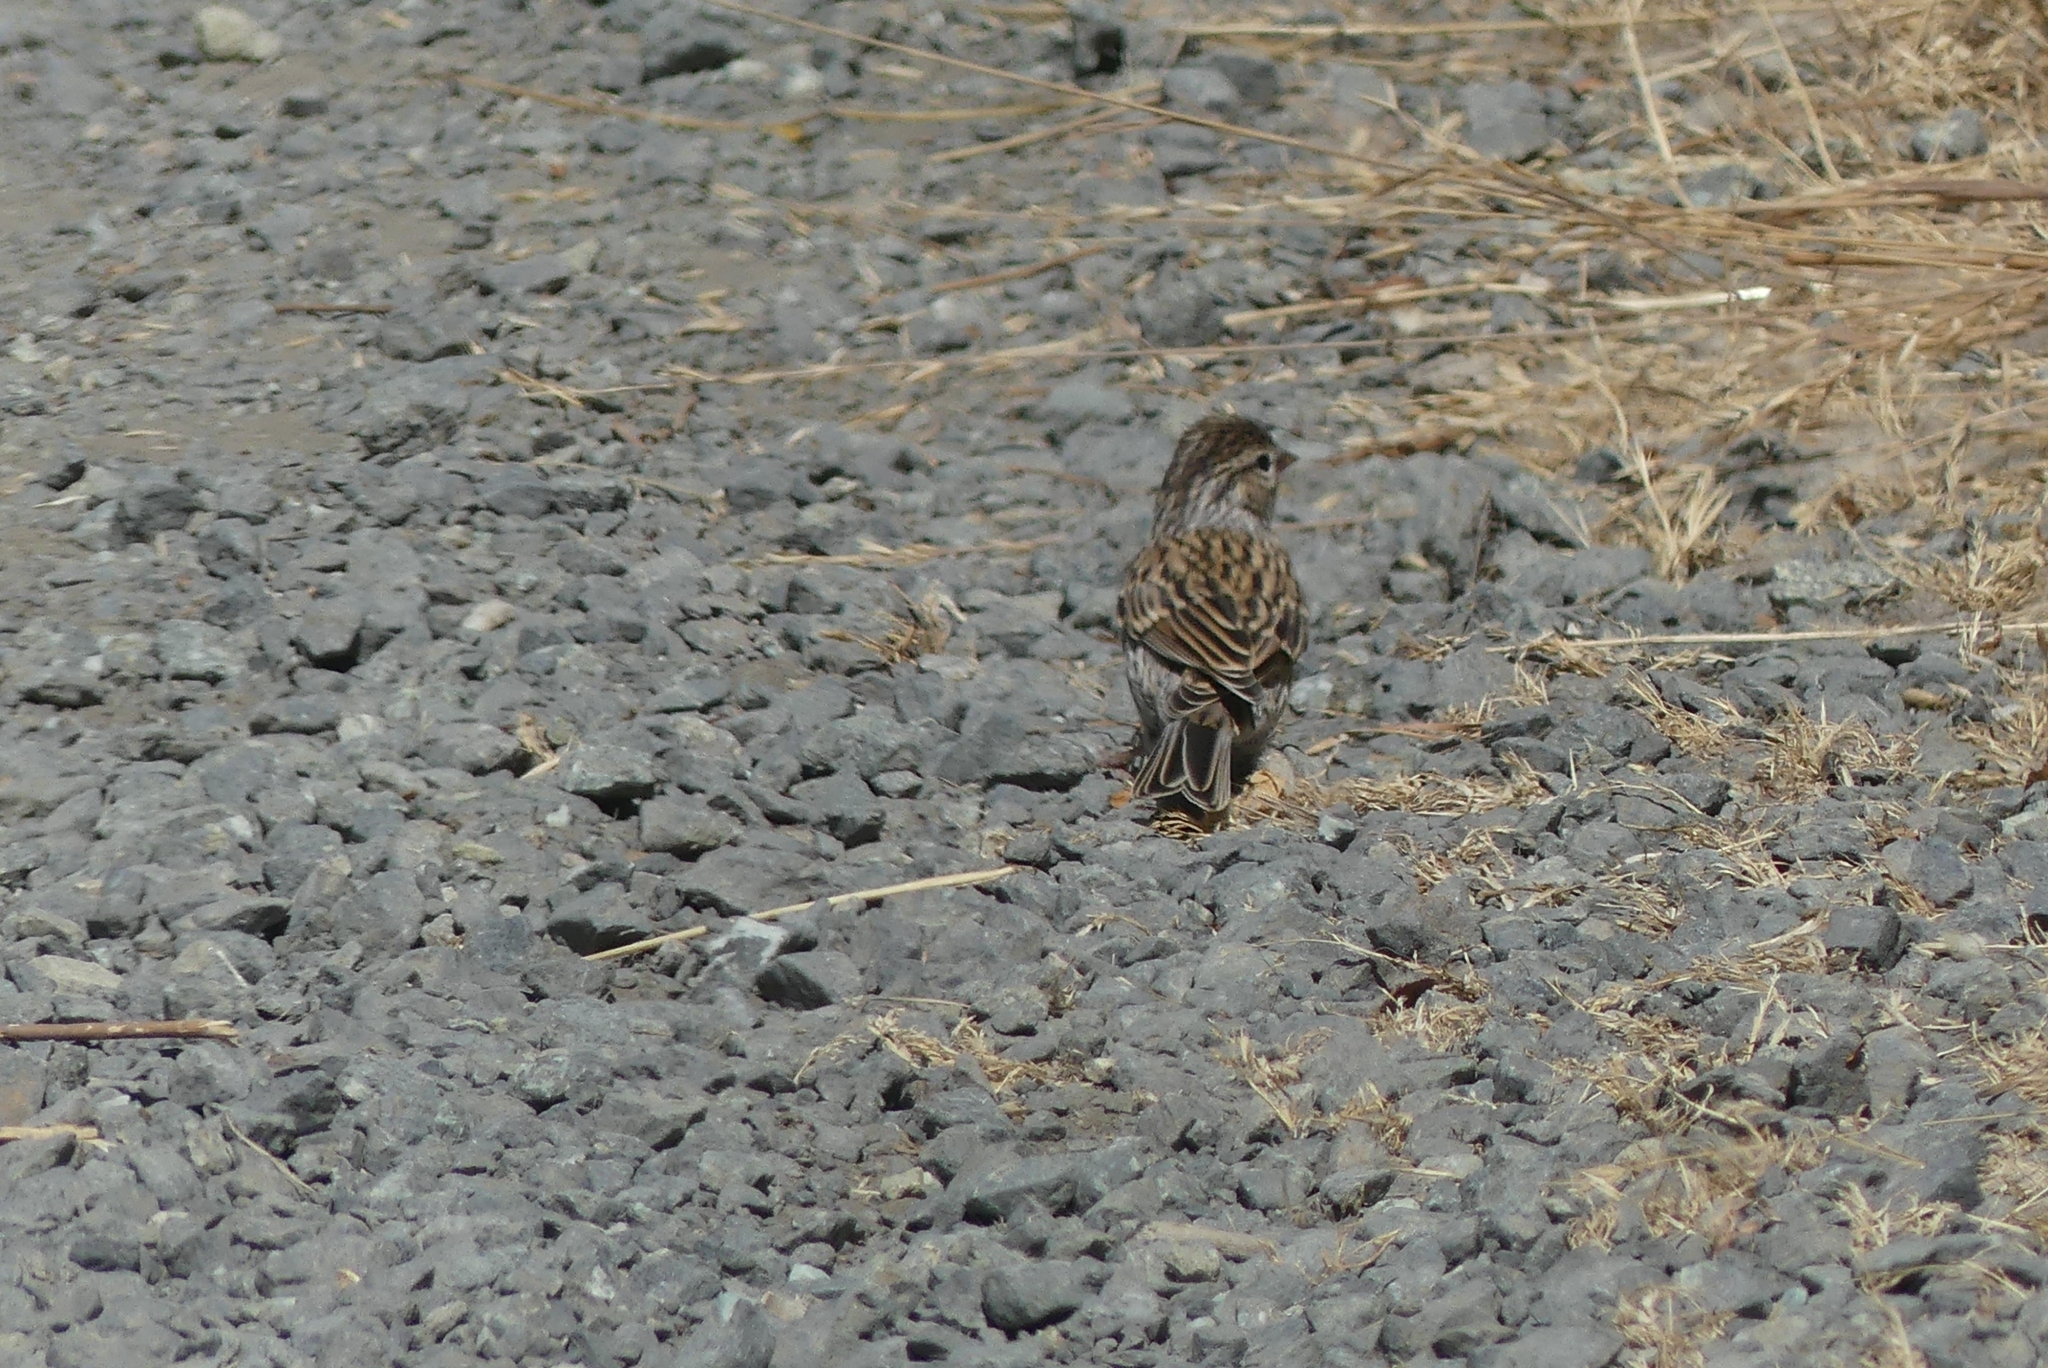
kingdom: Animalia
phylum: Chordata
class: Aves
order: Passeriformes
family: Passerellidae
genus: Spizella
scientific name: Spizella passerina
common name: Chipping sparrow
